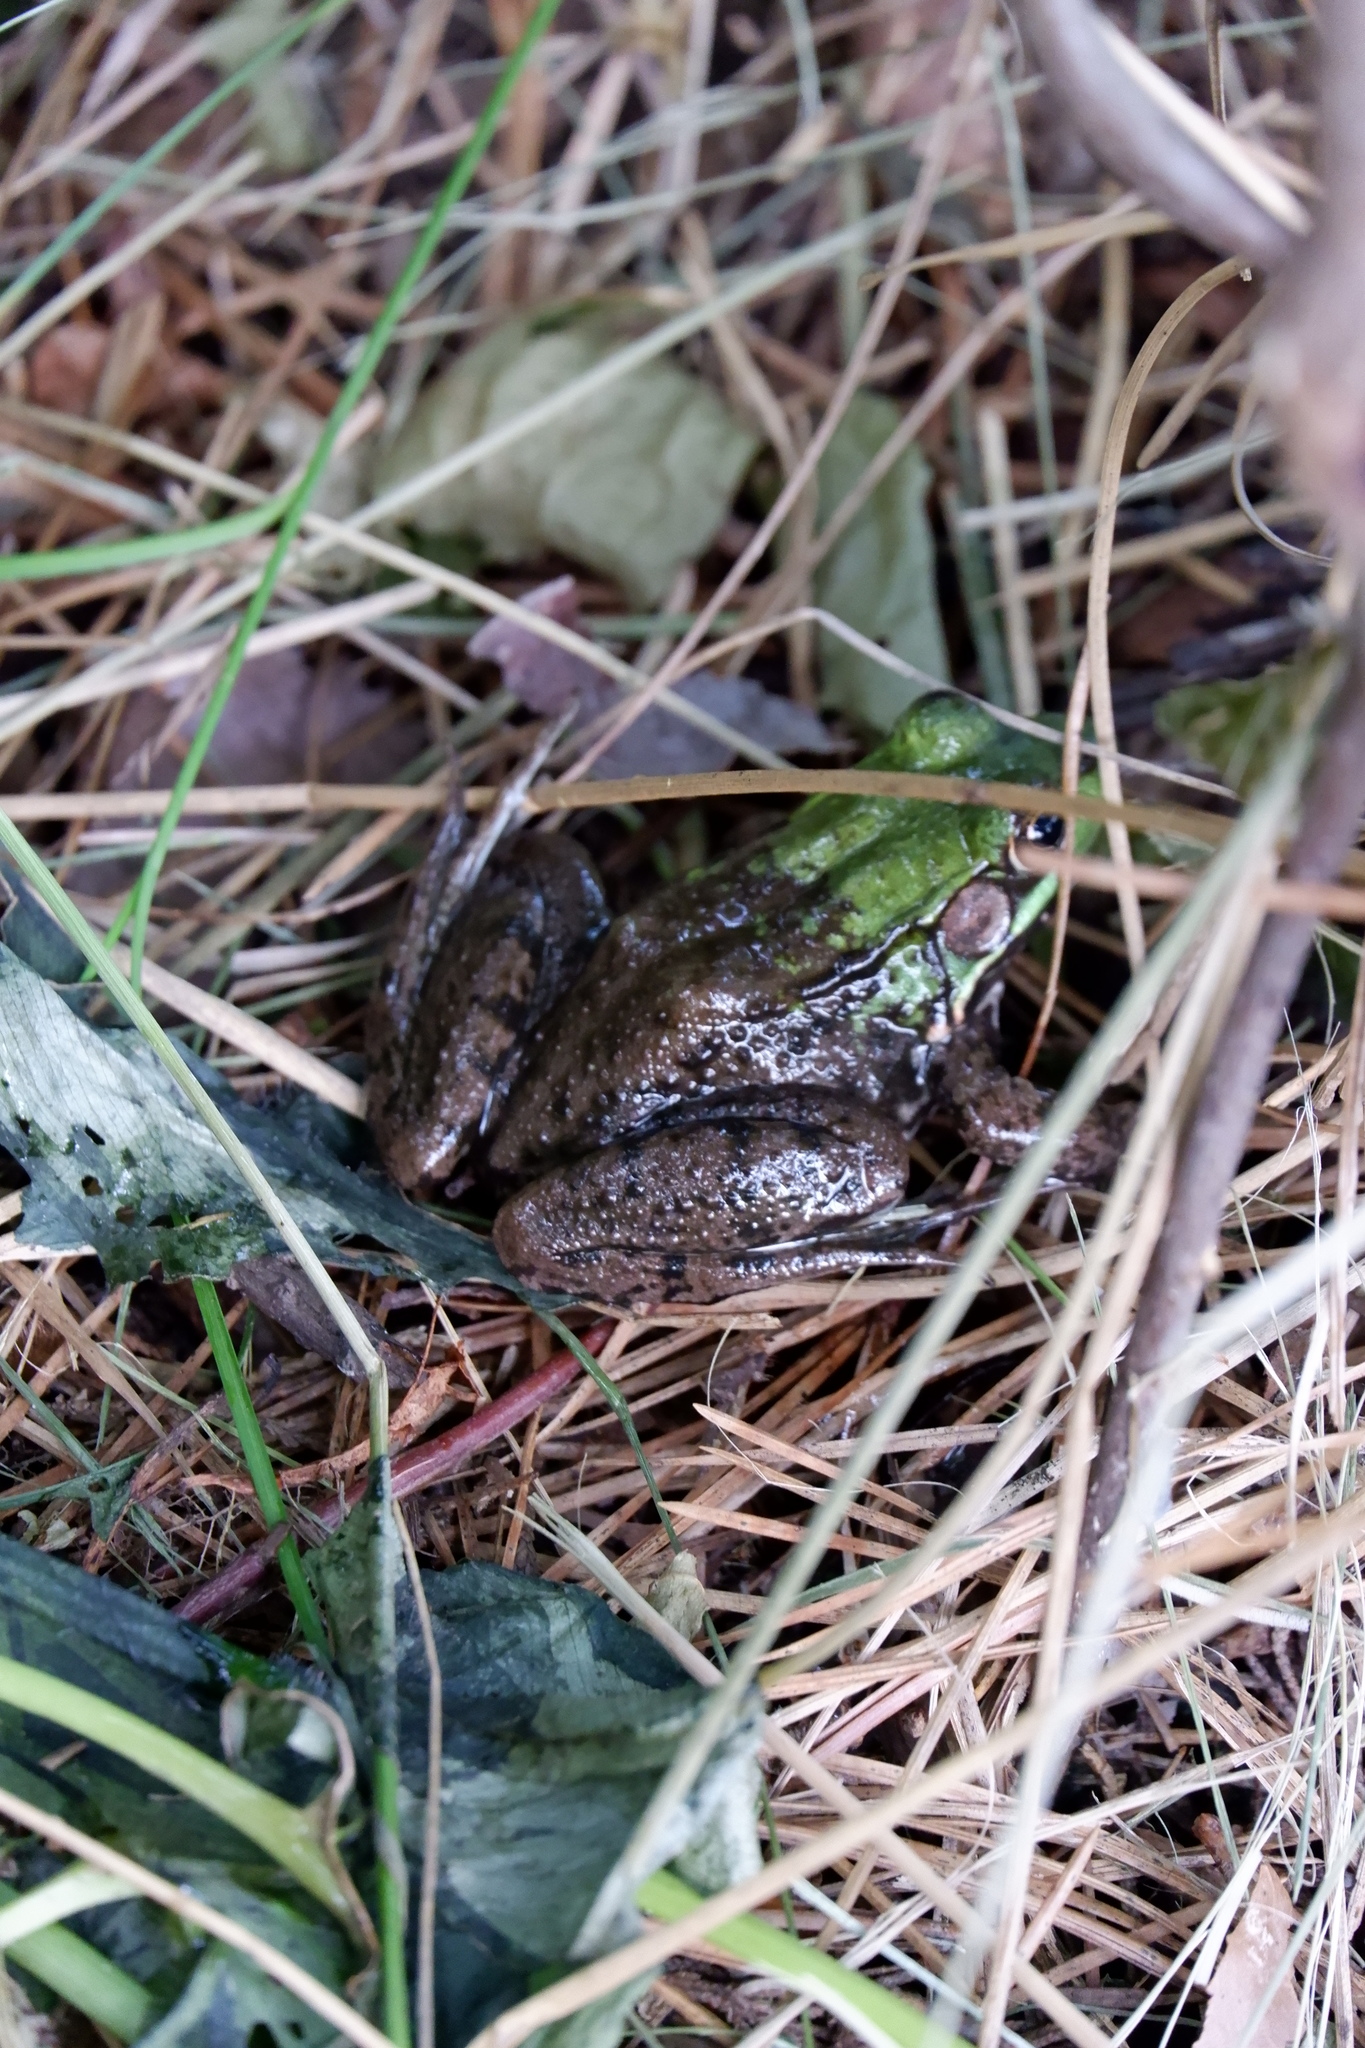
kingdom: Animalia
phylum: Chordata
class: Amphibia
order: Anura
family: Ranidae
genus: Lithobates
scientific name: Lithobates clamitans
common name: Green frog
